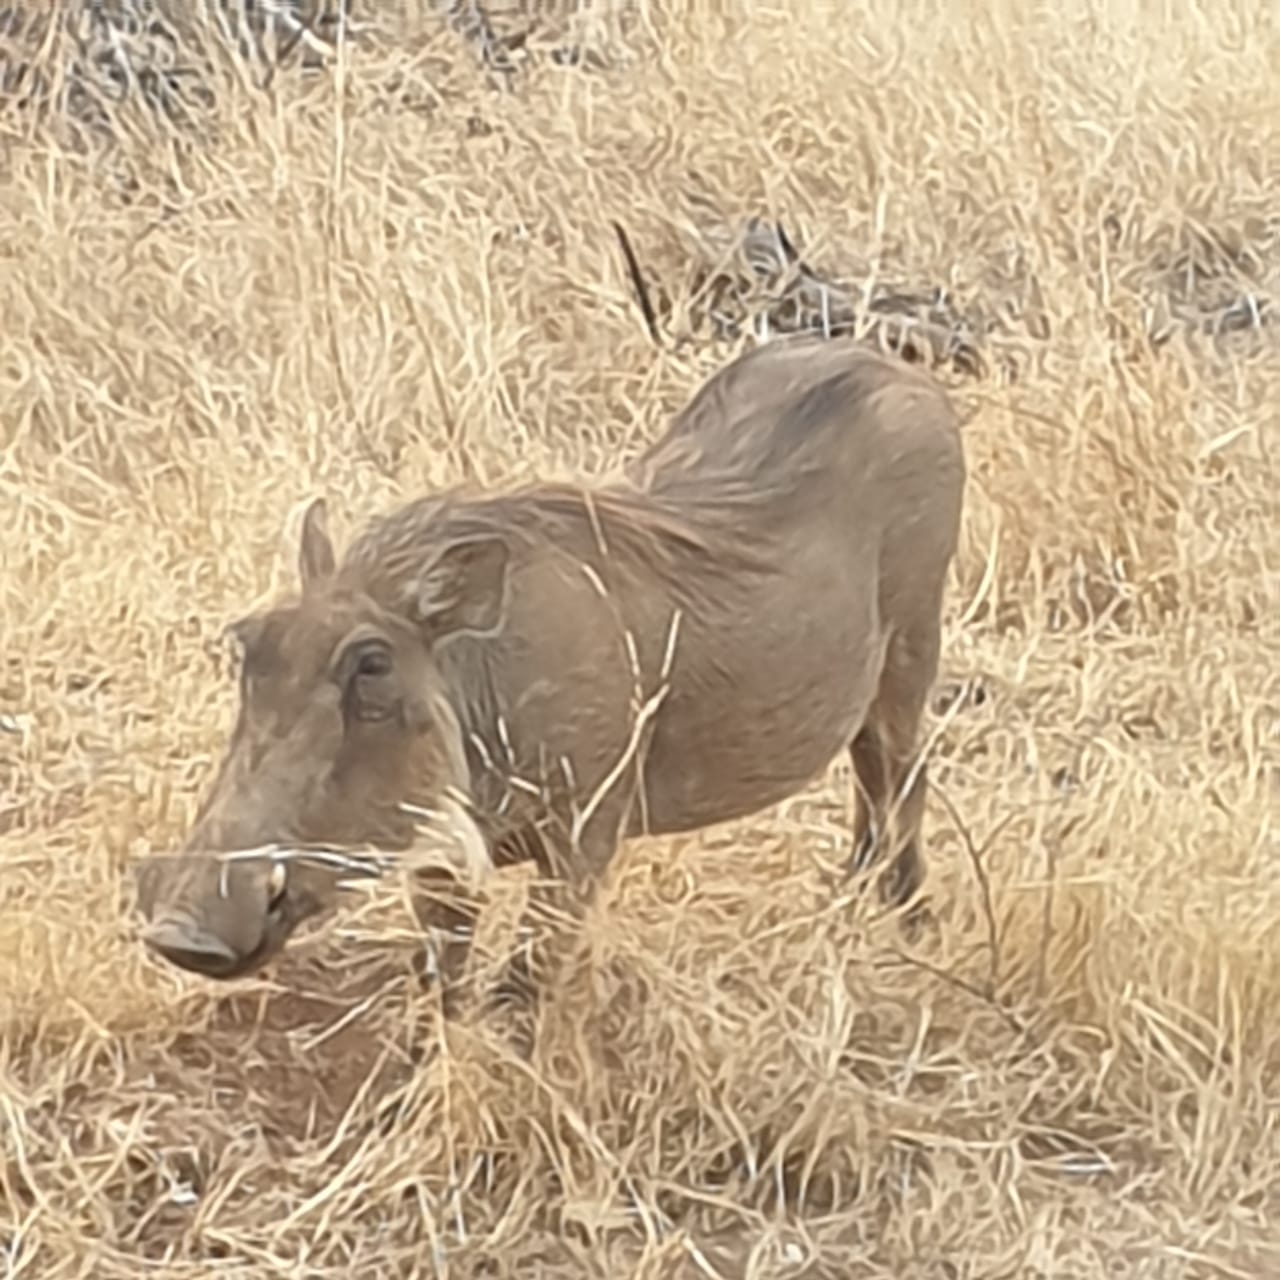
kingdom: Animalia
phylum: Chordata
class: Mammalia
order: Artiodactyla
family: Suidae
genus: Phacochoerus
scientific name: Phacochoerus africanus
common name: Common warthog
